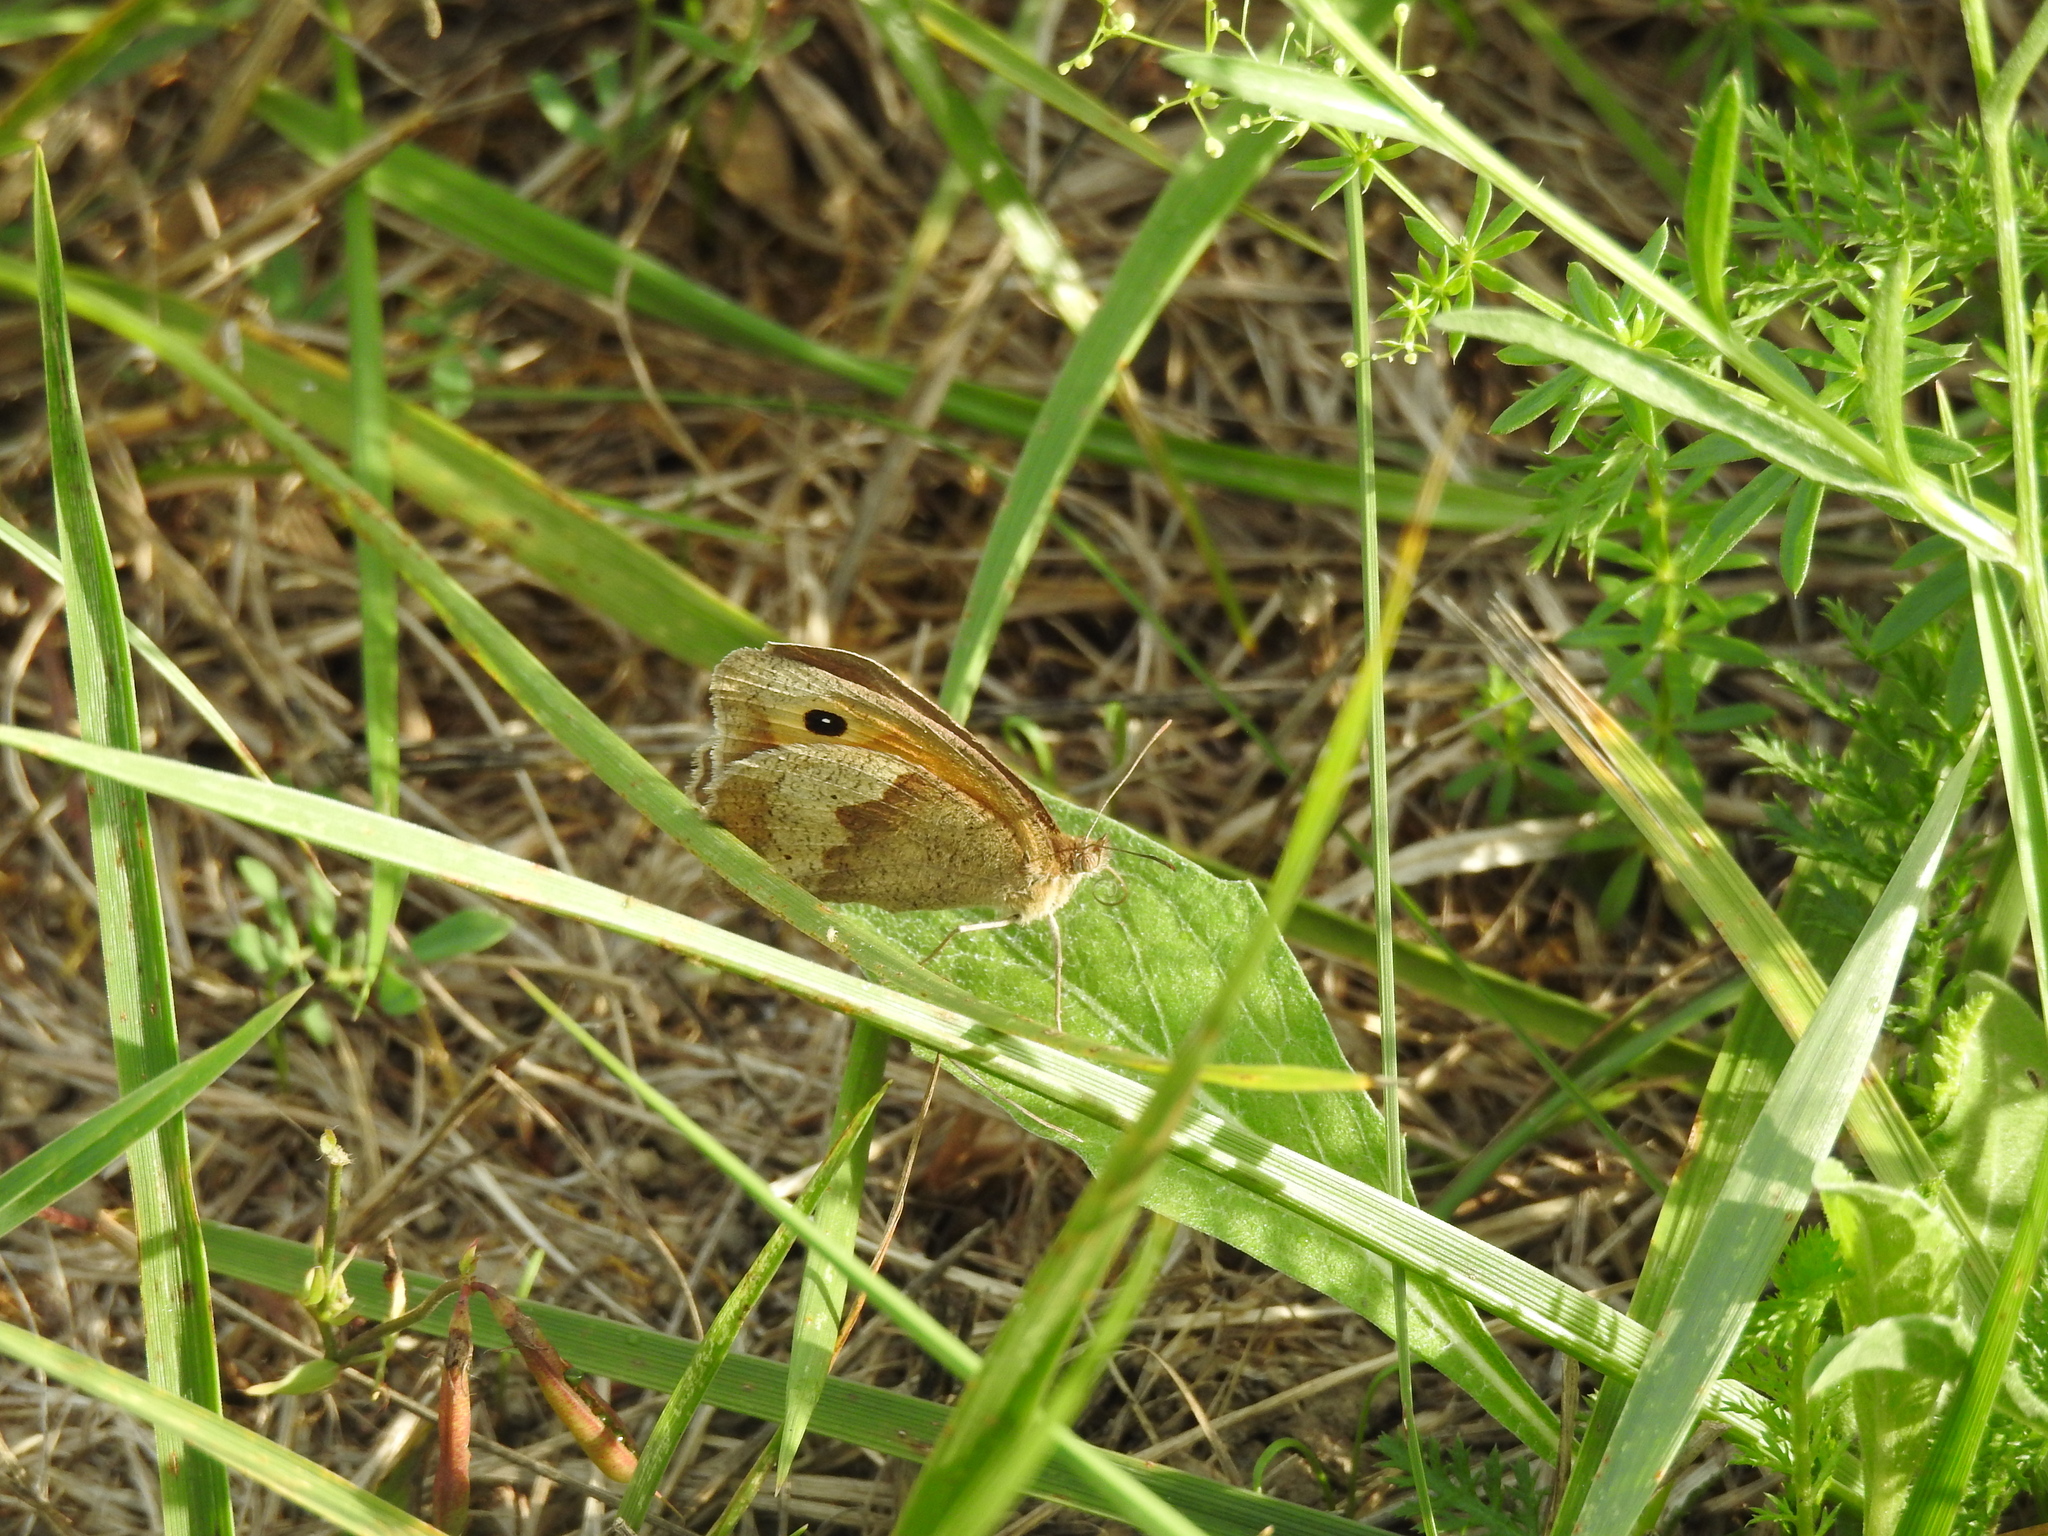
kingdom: Animalia
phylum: Arthropoda
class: Insecta
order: Lepidoptera
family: Nymphalidae
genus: Maniola
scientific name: Maniola jurtina
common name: Meadow brown
